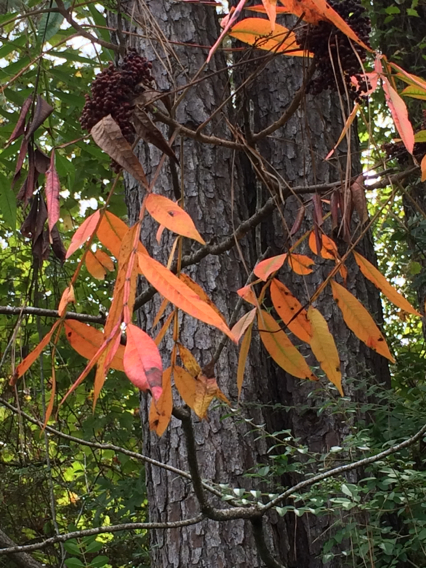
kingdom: Plantae
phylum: Tracheophyta
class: Magnoliopsida
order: Sapindales
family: Anacardiaceae
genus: Rhus
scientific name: Rhus copallina
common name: Shining sumac
